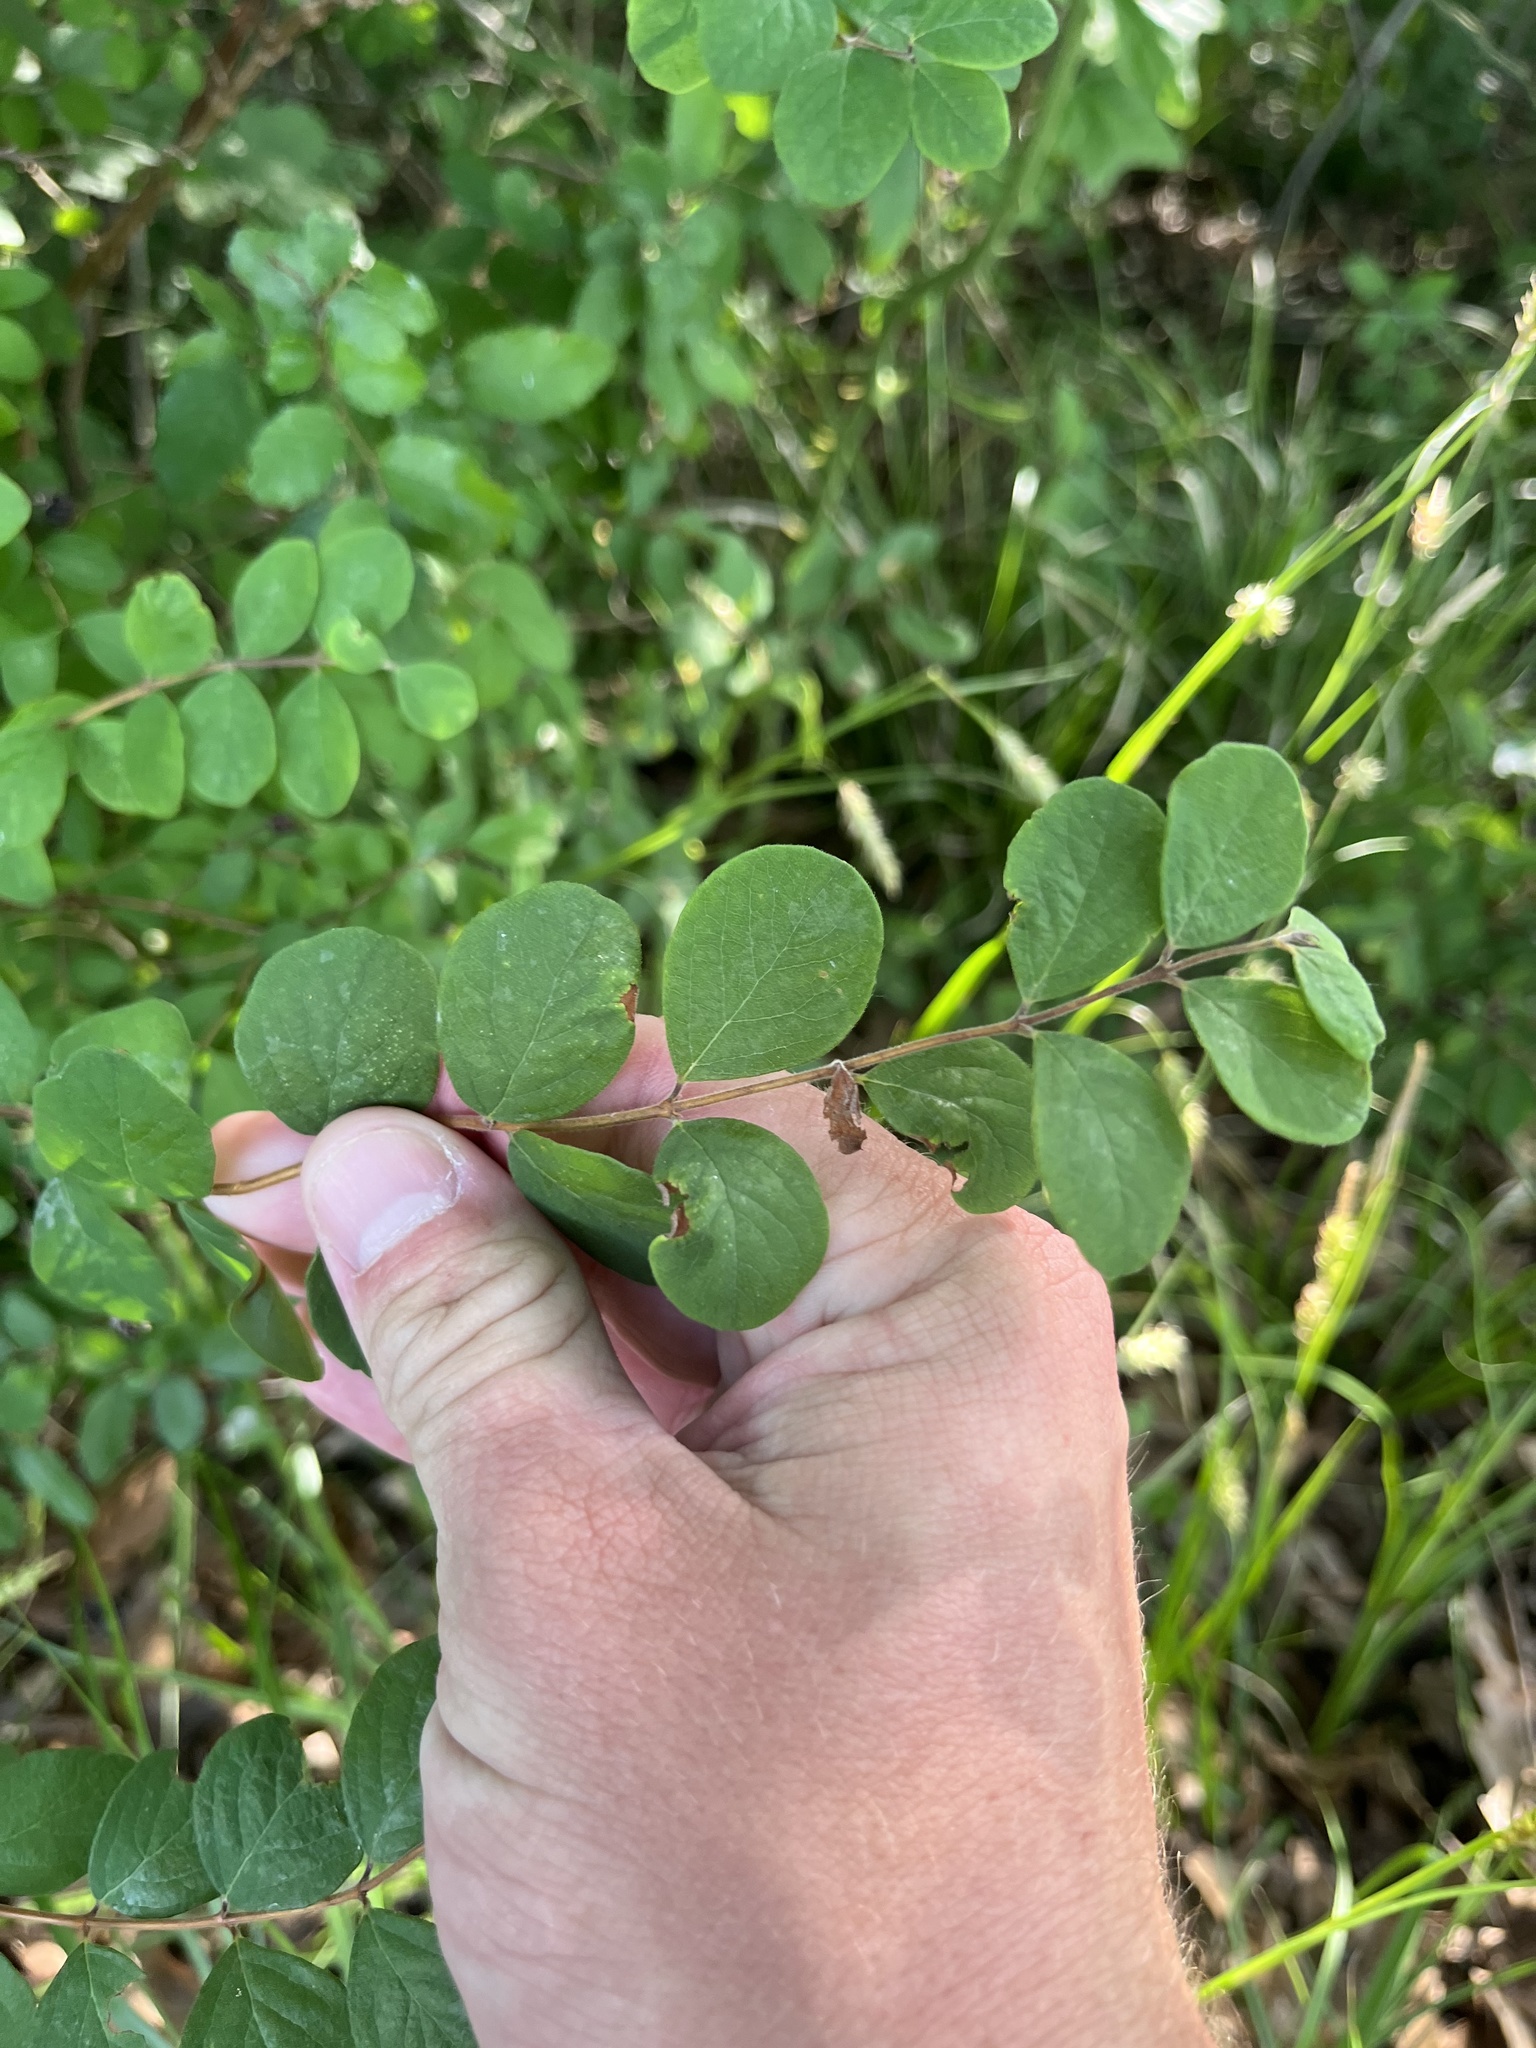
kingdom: Plantae
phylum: Tracheophyta
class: Magnoliopsida
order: Dipsacales
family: Caprifoliaceae
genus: Symphoricarpos
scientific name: Symphoricarpos orbiculatus
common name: Coralberry
